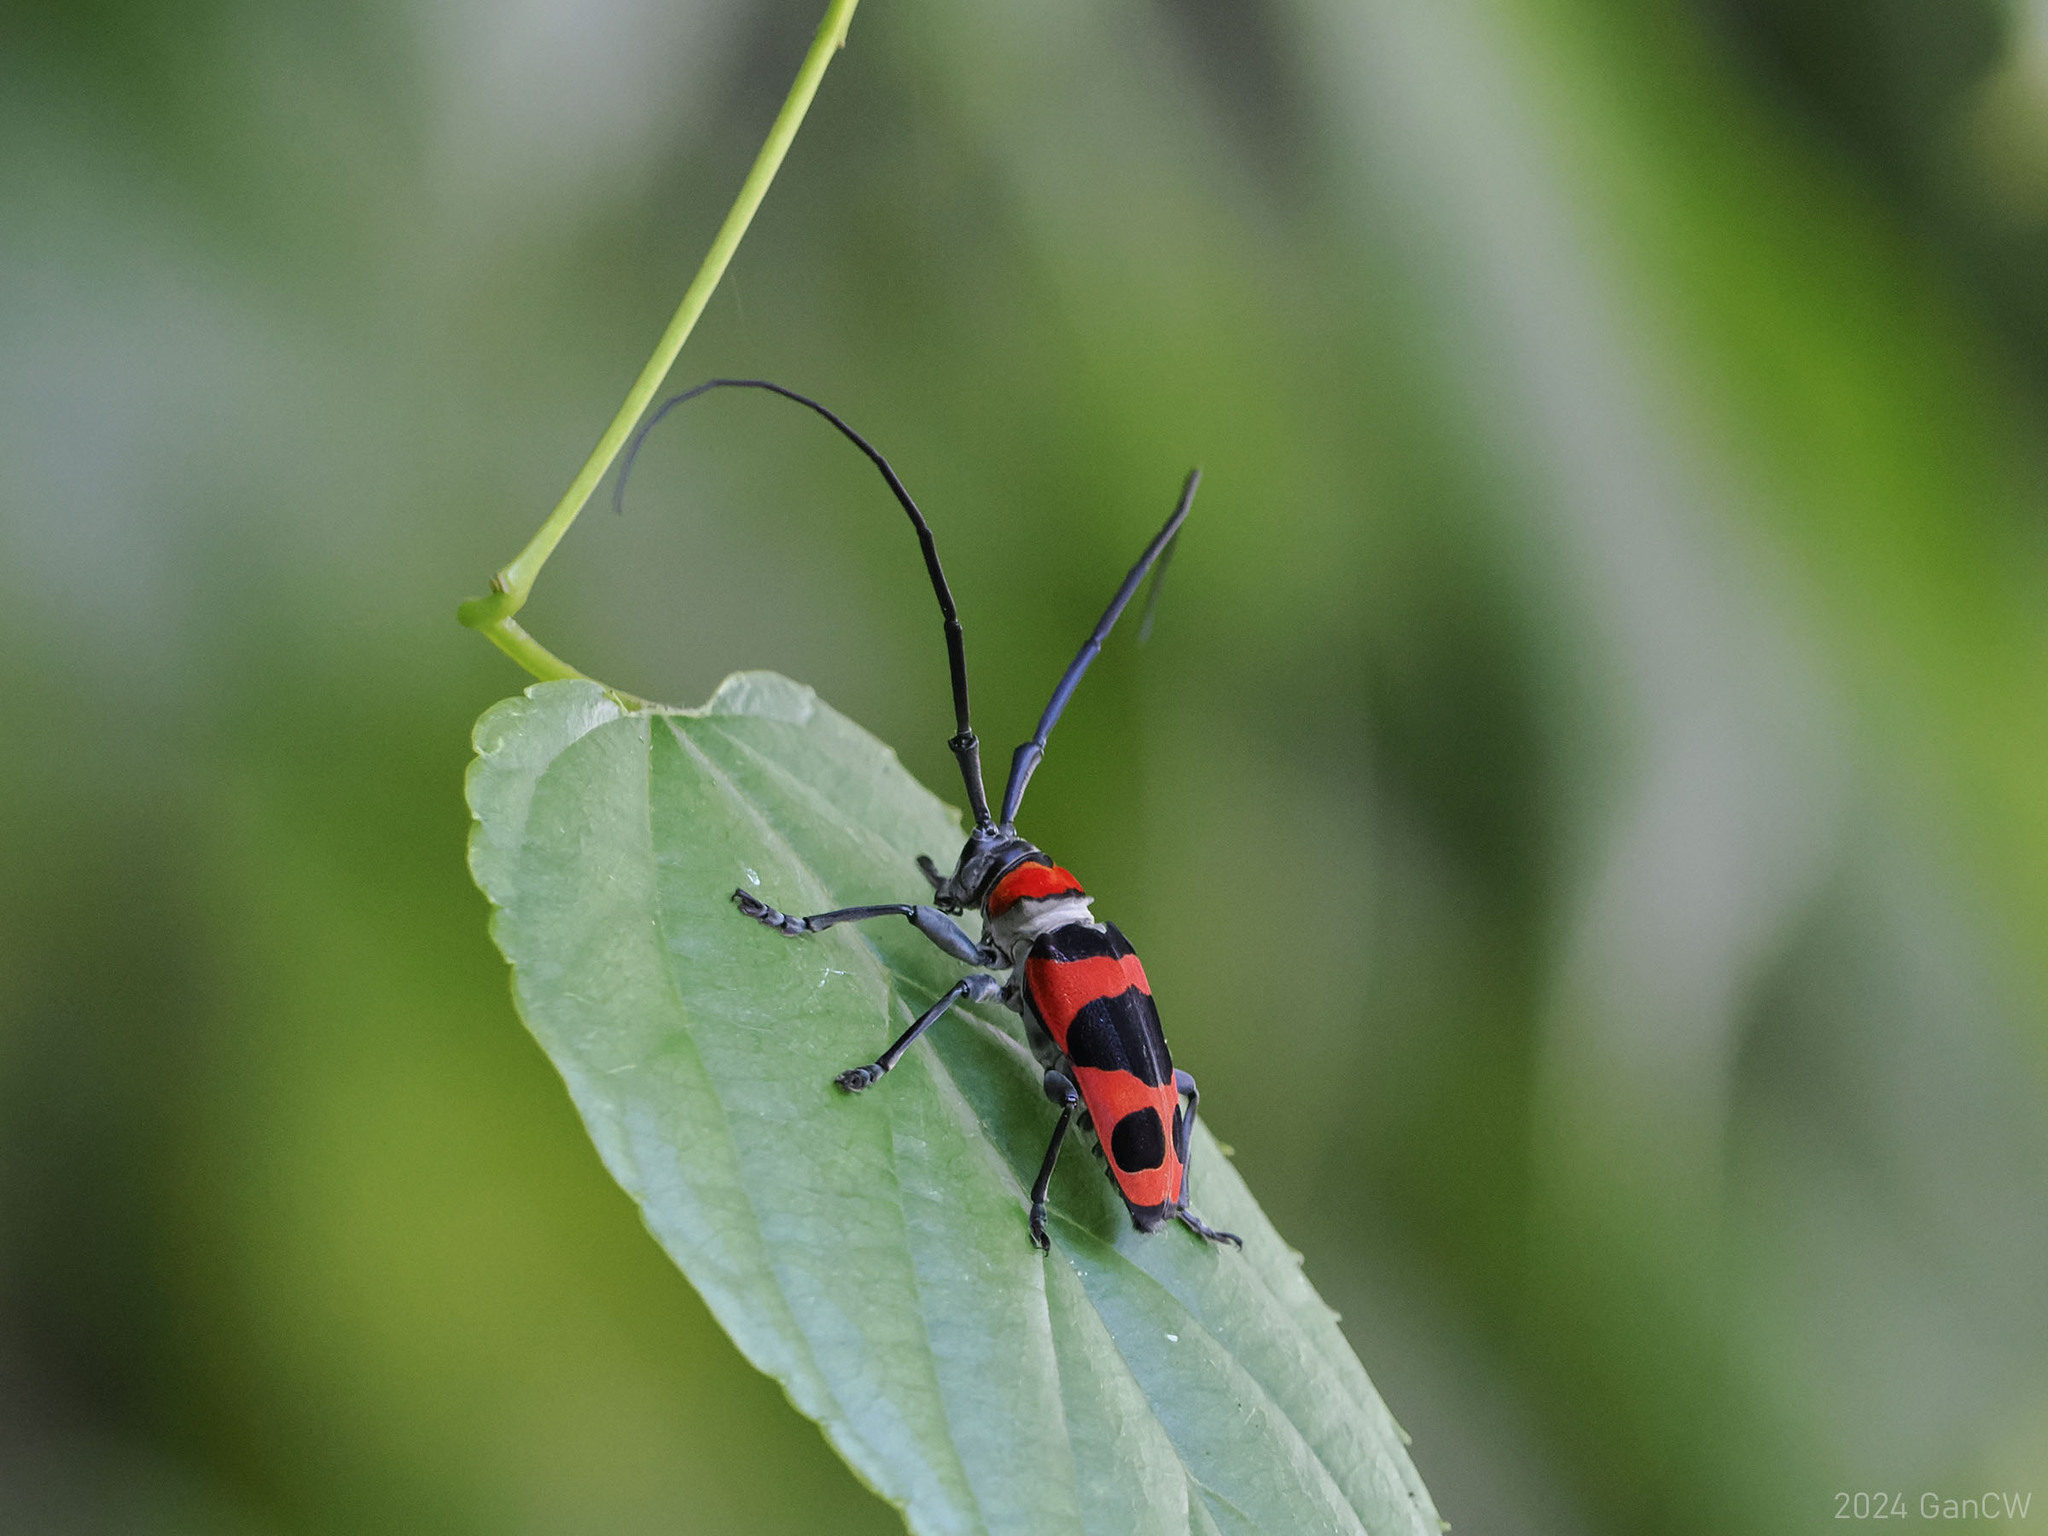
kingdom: Animalia
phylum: Arthropoda
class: Insecta
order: Coleoptera
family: Cerambycidae
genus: Cereopsius
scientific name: Cereopsius quaestor
